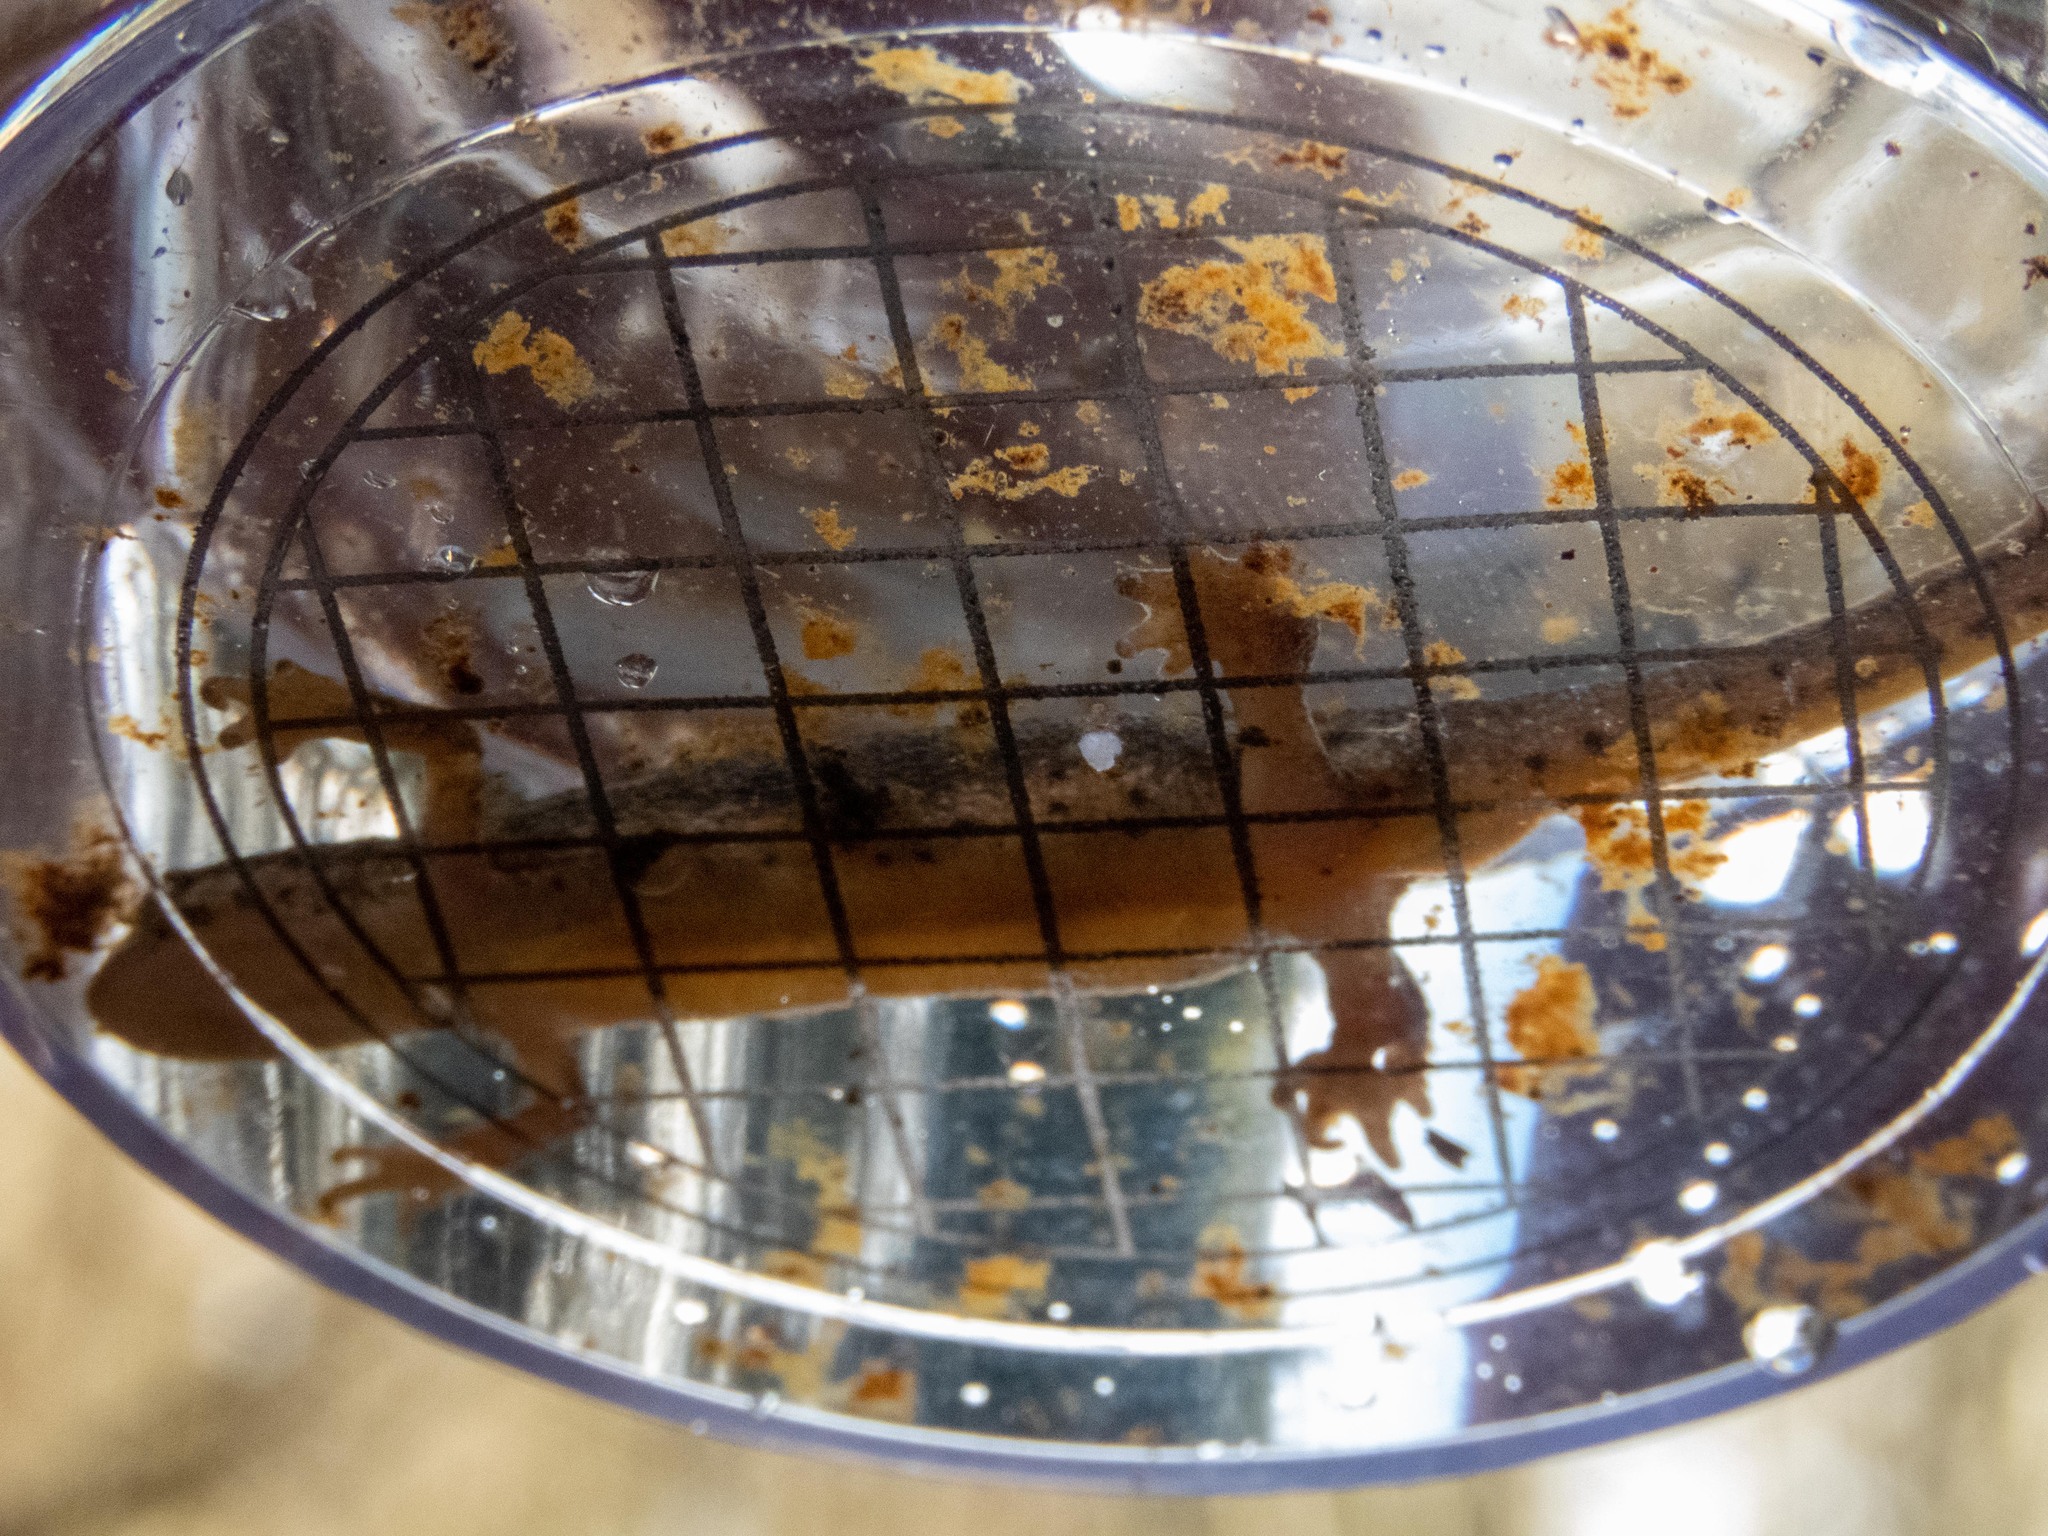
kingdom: Animalia
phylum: Chordata
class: Amphibia
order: Caudata
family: Salamandridae
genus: Lissotriton
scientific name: Lissotriton helveticus
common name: Palmate newt
